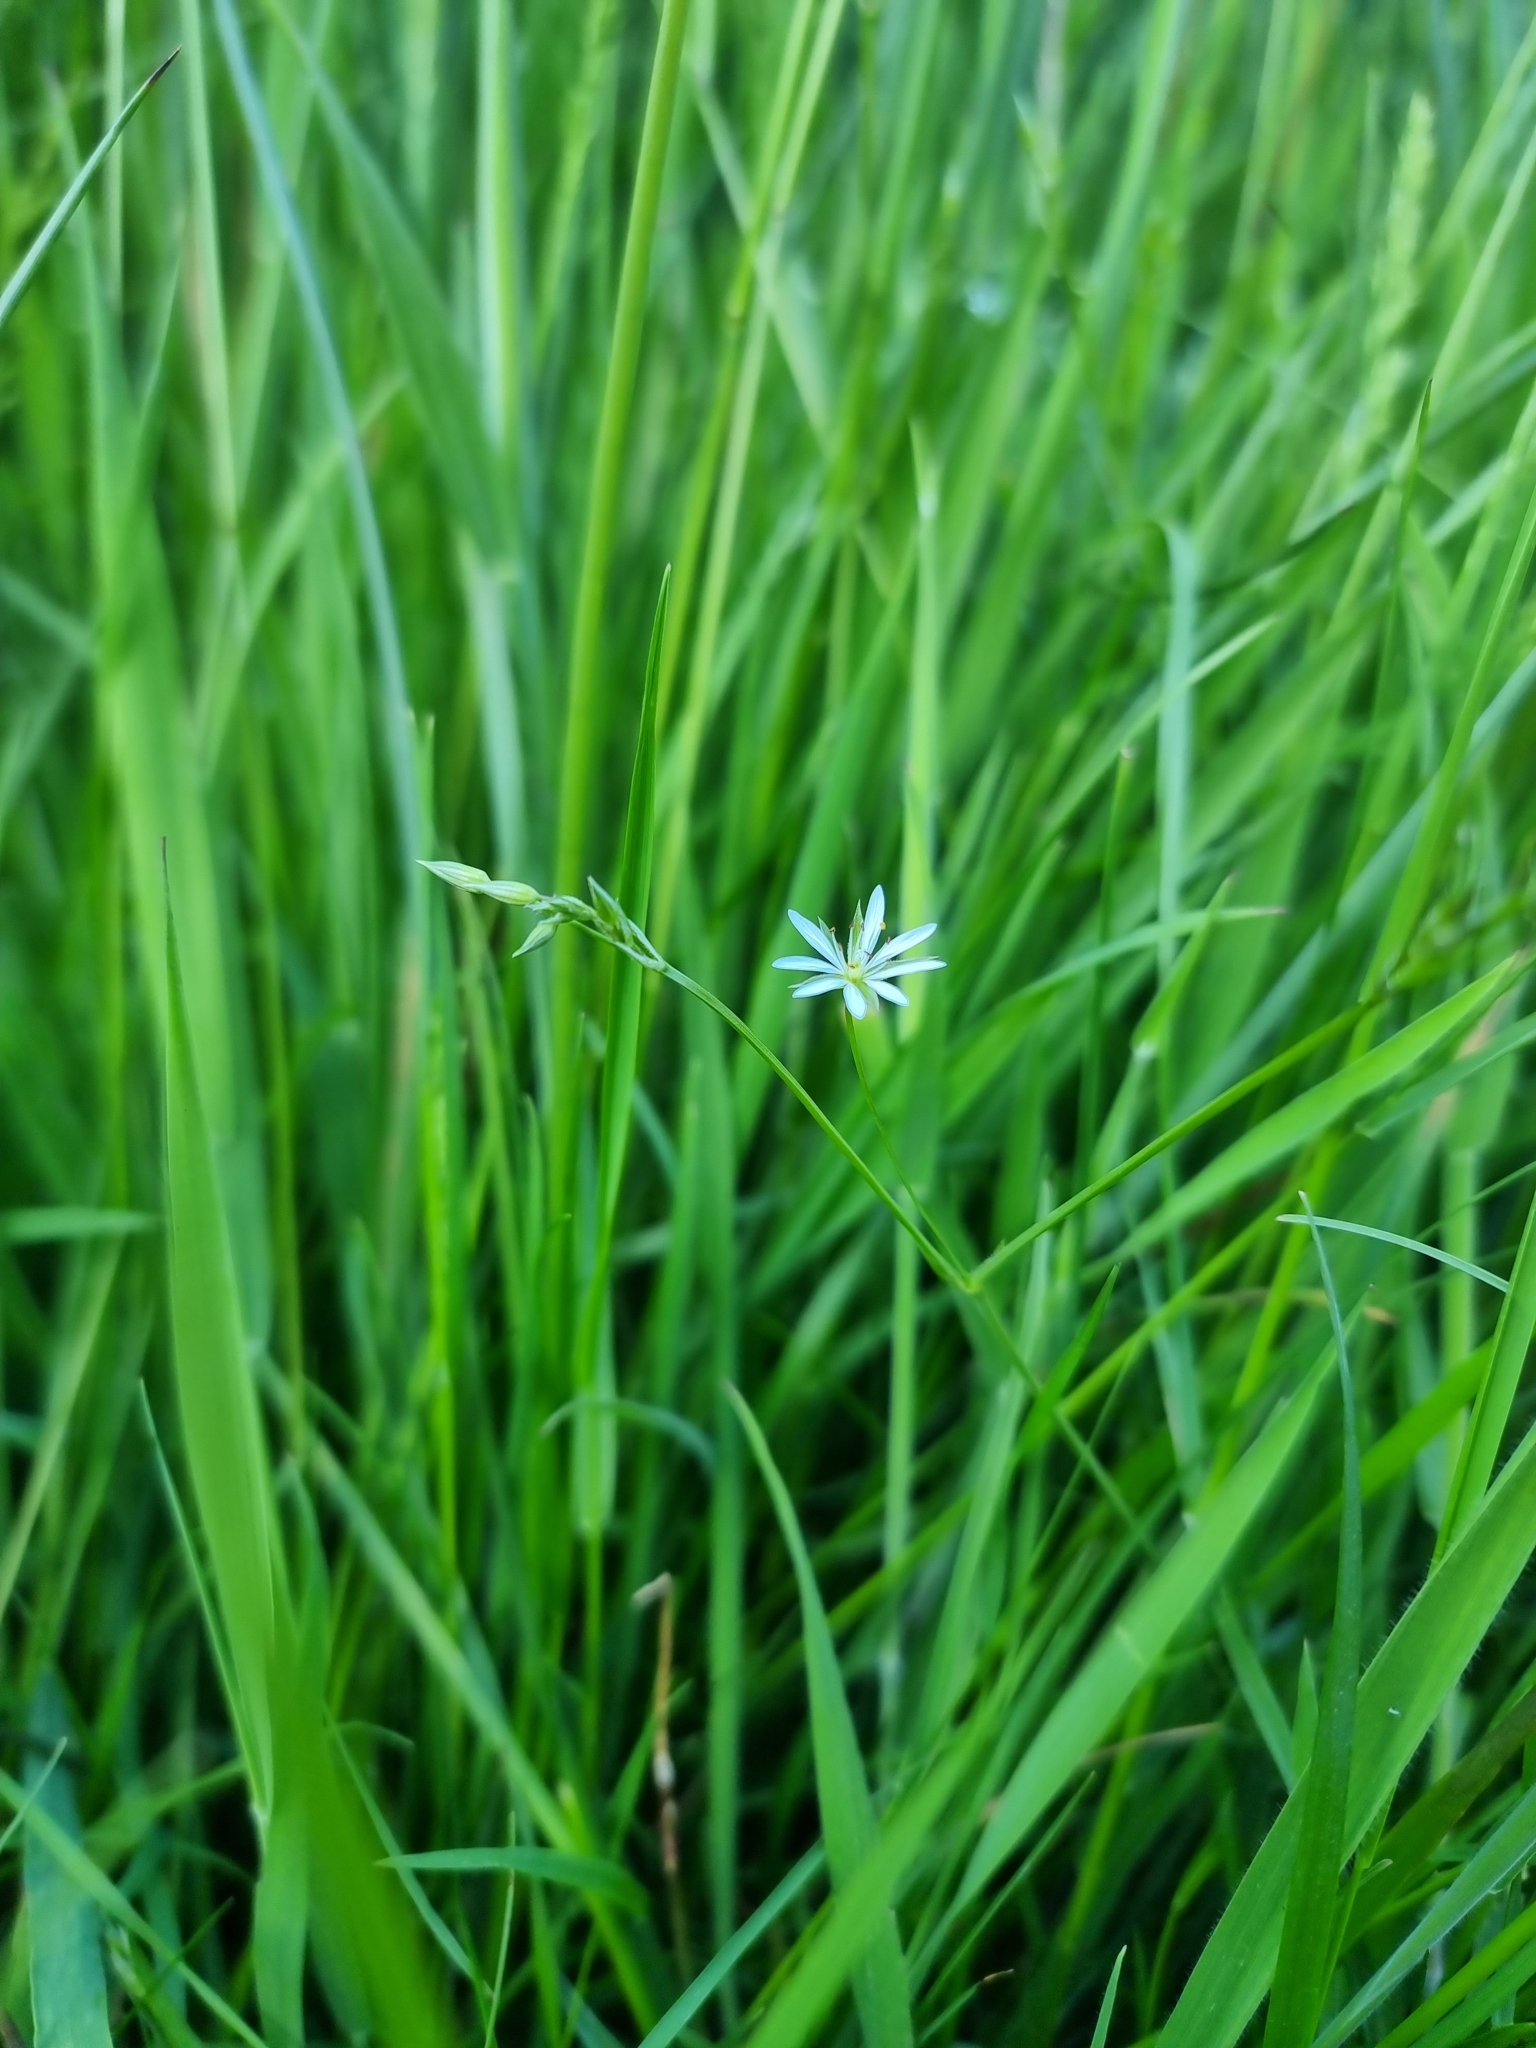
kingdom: Plantae
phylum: Tracheophyta
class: Magnoliopsida
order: Caryophyllales
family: Caryophyllaceae
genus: Stellaria
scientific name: Stellaria graminea
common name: Grass-like starwort
